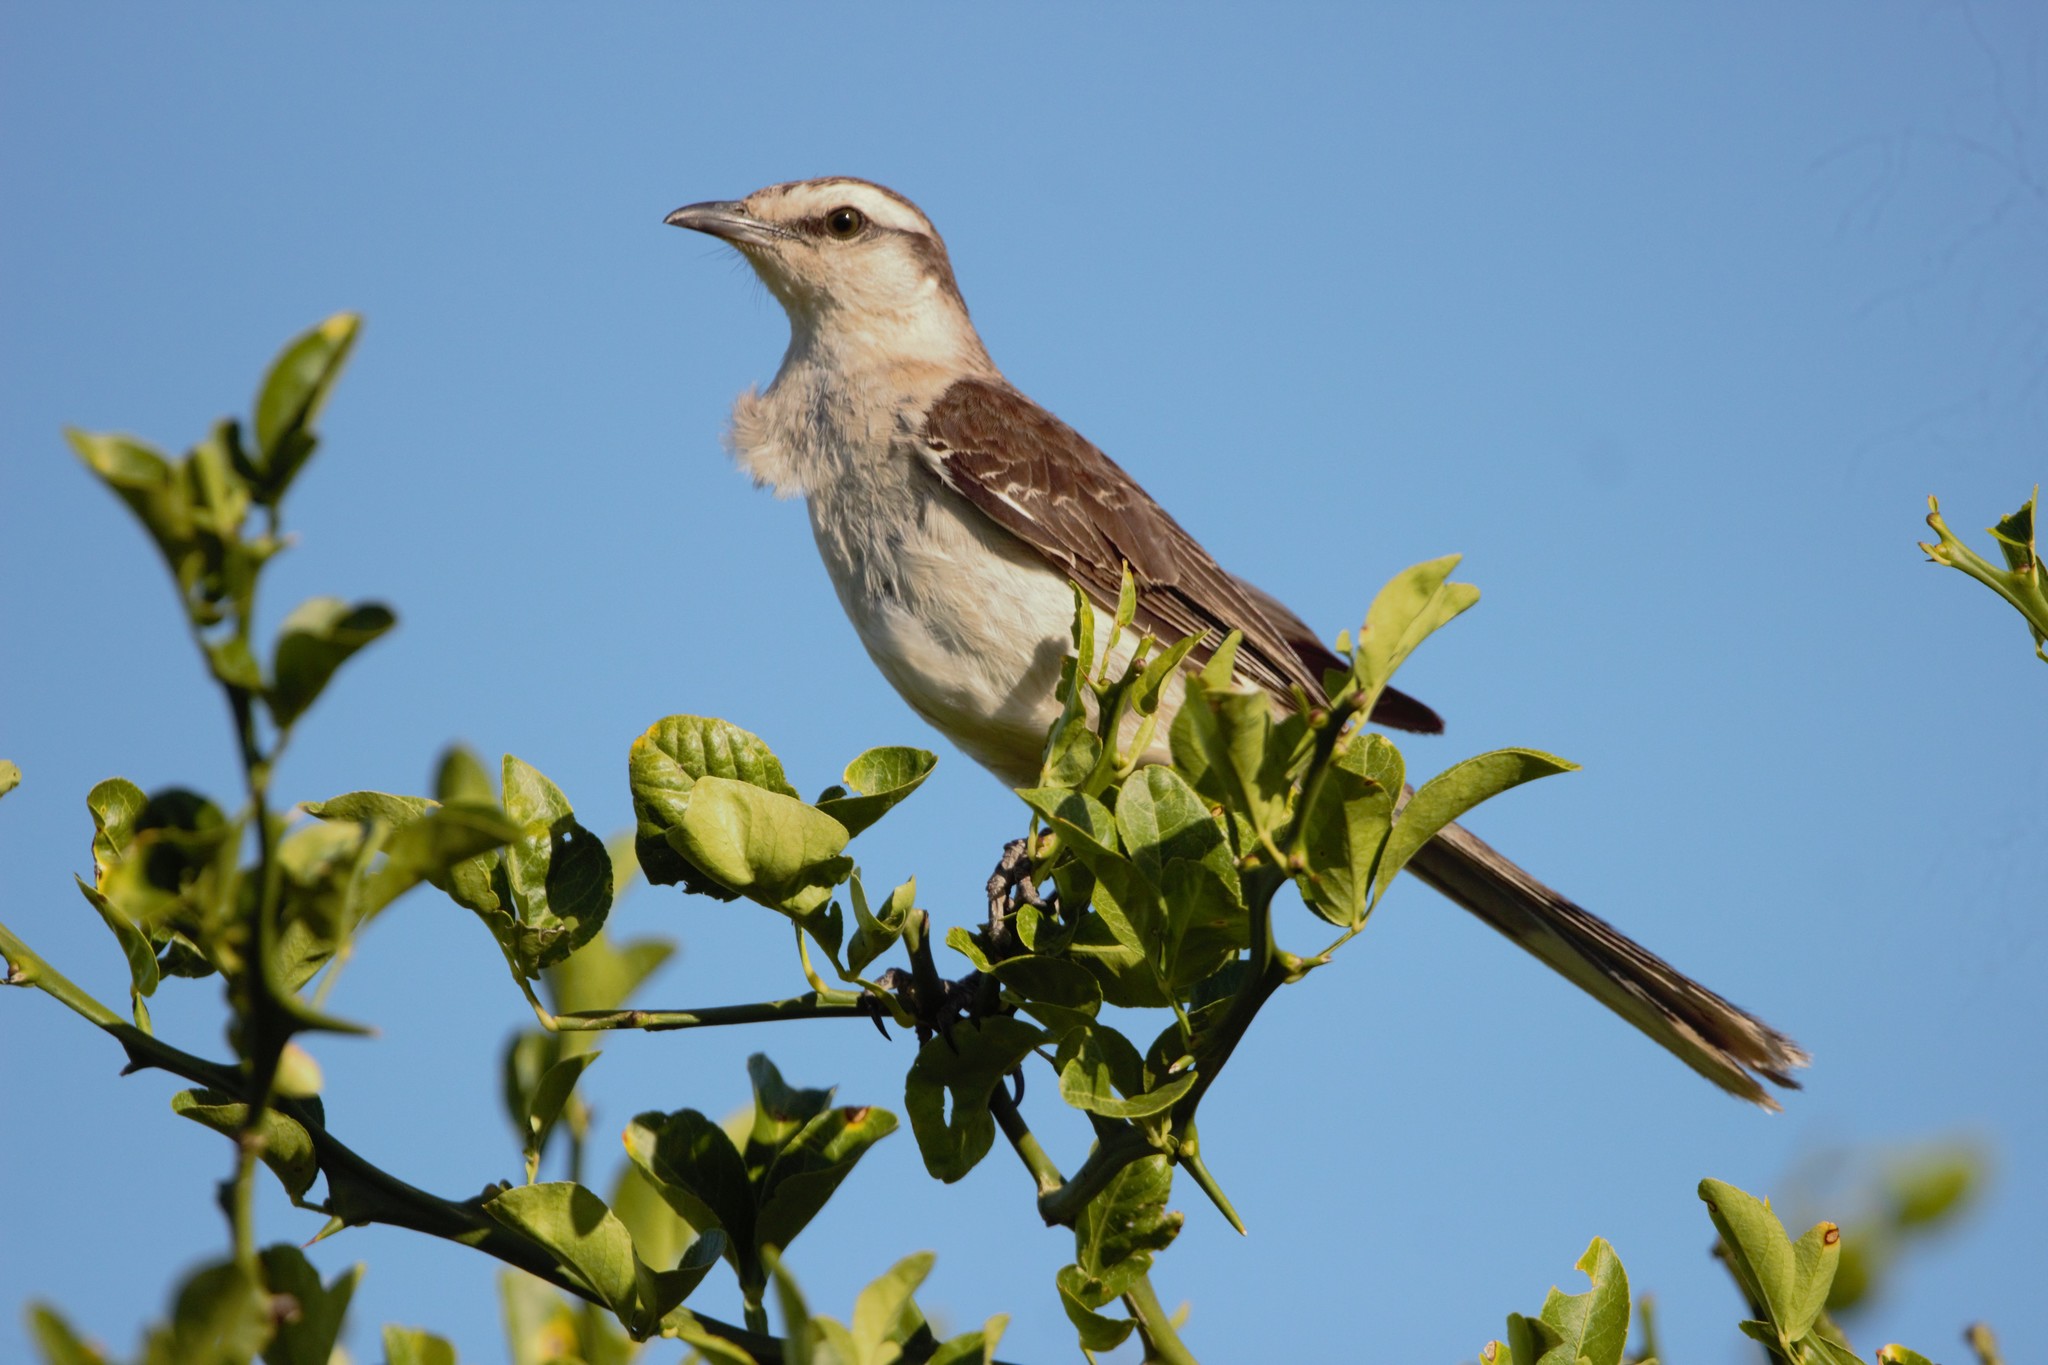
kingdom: Animalia
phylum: Chordata
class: Aves
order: Passeriformes
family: Mimidae
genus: Mimus
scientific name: Mimus saturninus
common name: Chalk-browed mockingbird
